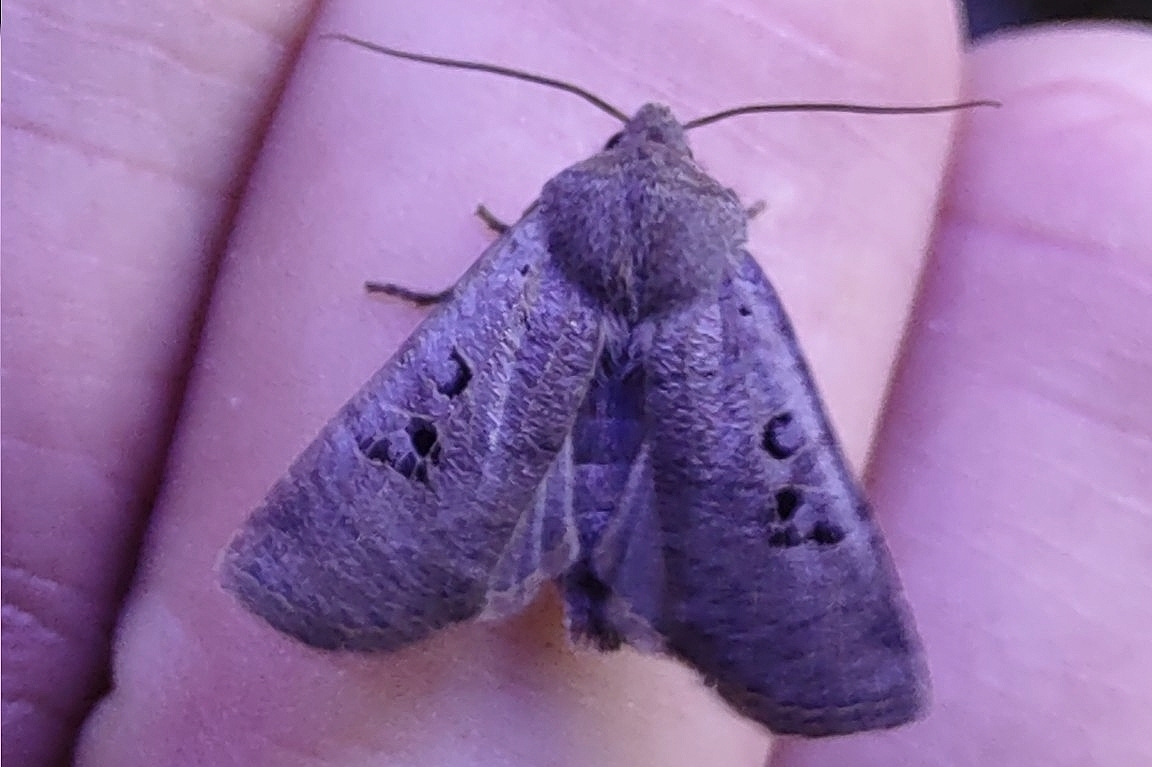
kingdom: Animalia
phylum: Arthropoda
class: Insecta
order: Lepidoptera
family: Noctuidae
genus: Conistra
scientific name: Conistra rubiginosa
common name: Black-spotted chestnut
